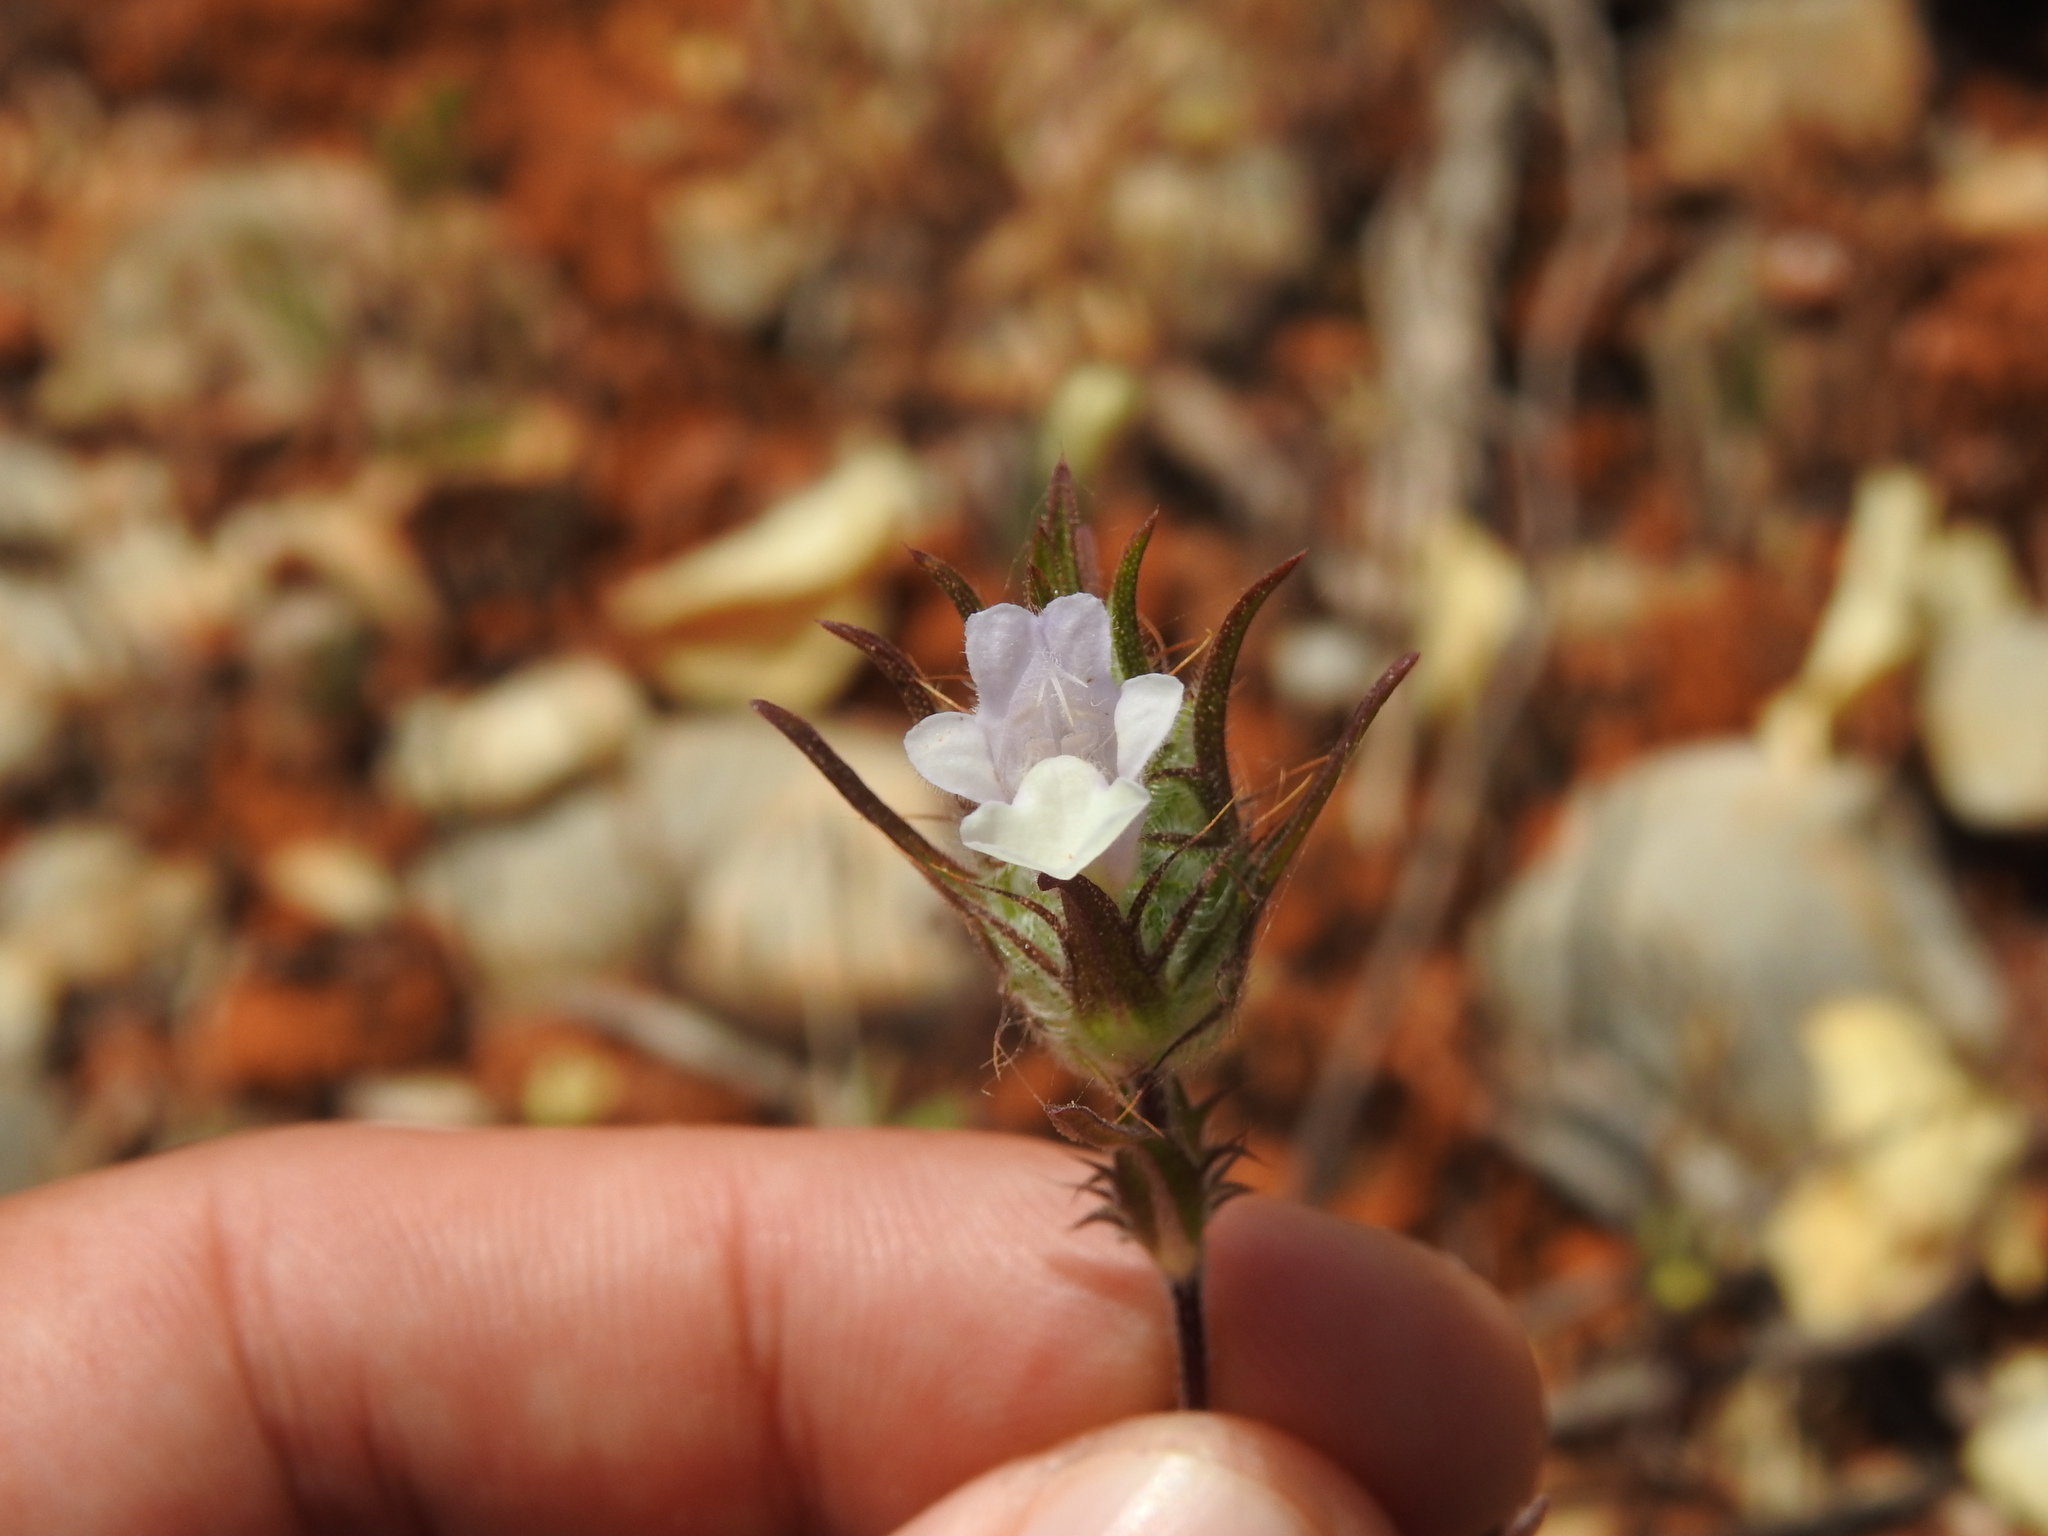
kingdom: Plantae
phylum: Tracheophyta
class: Magnoliopsida
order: Lamiales
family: Lamiaceae
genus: Cleonia
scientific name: Cleonia lusitanica
